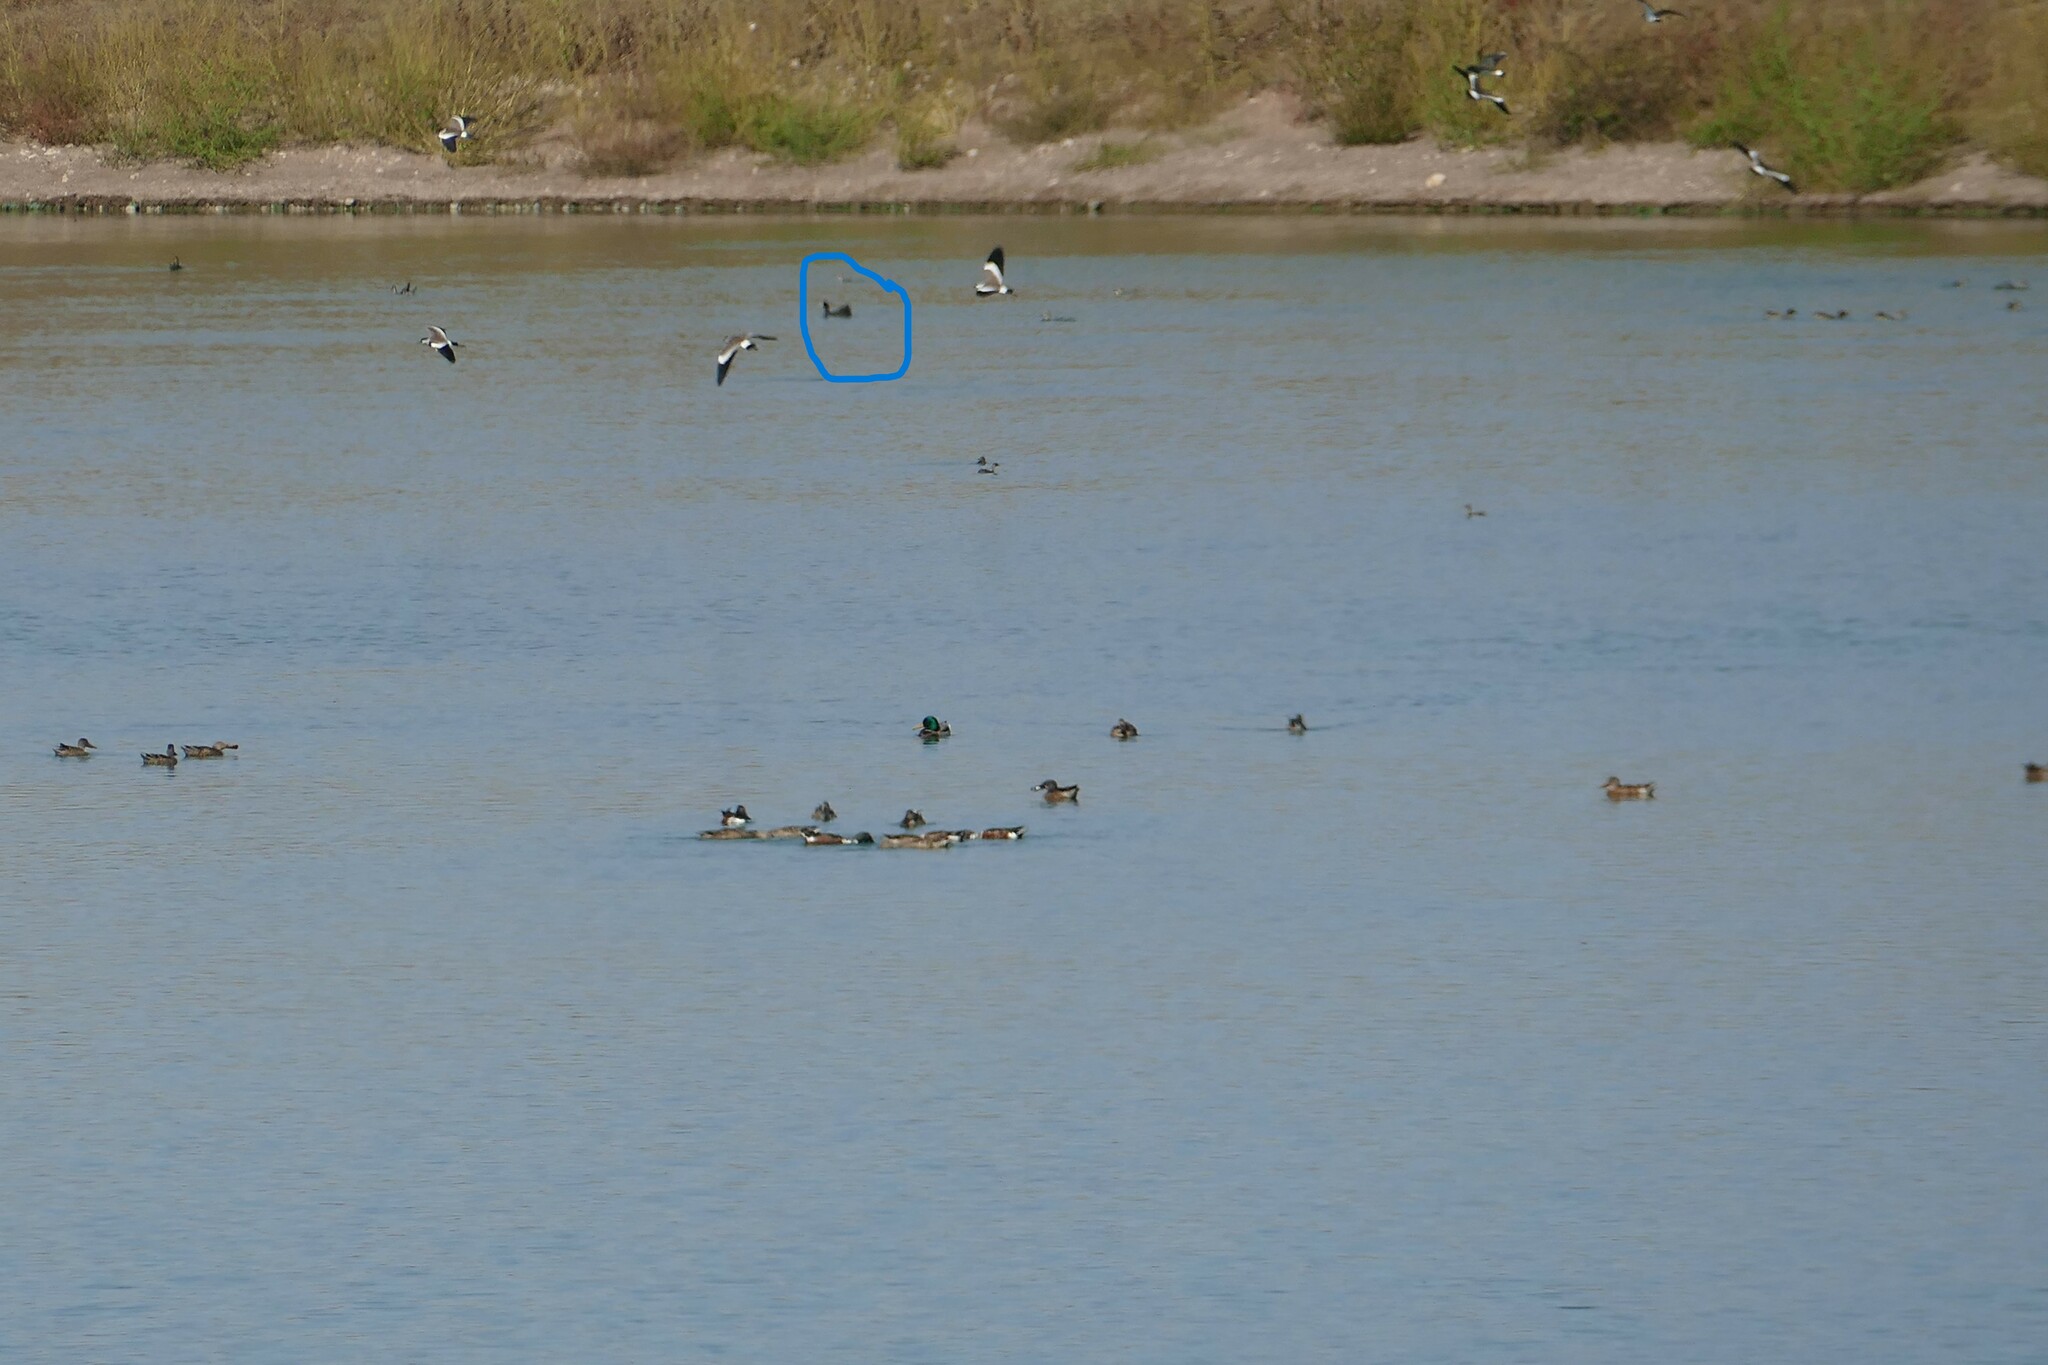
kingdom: Animalia
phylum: Chordata
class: Aves
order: Gruiformes
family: Rallidae
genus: Fulica
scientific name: Fulica atra
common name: Eurasian coot
